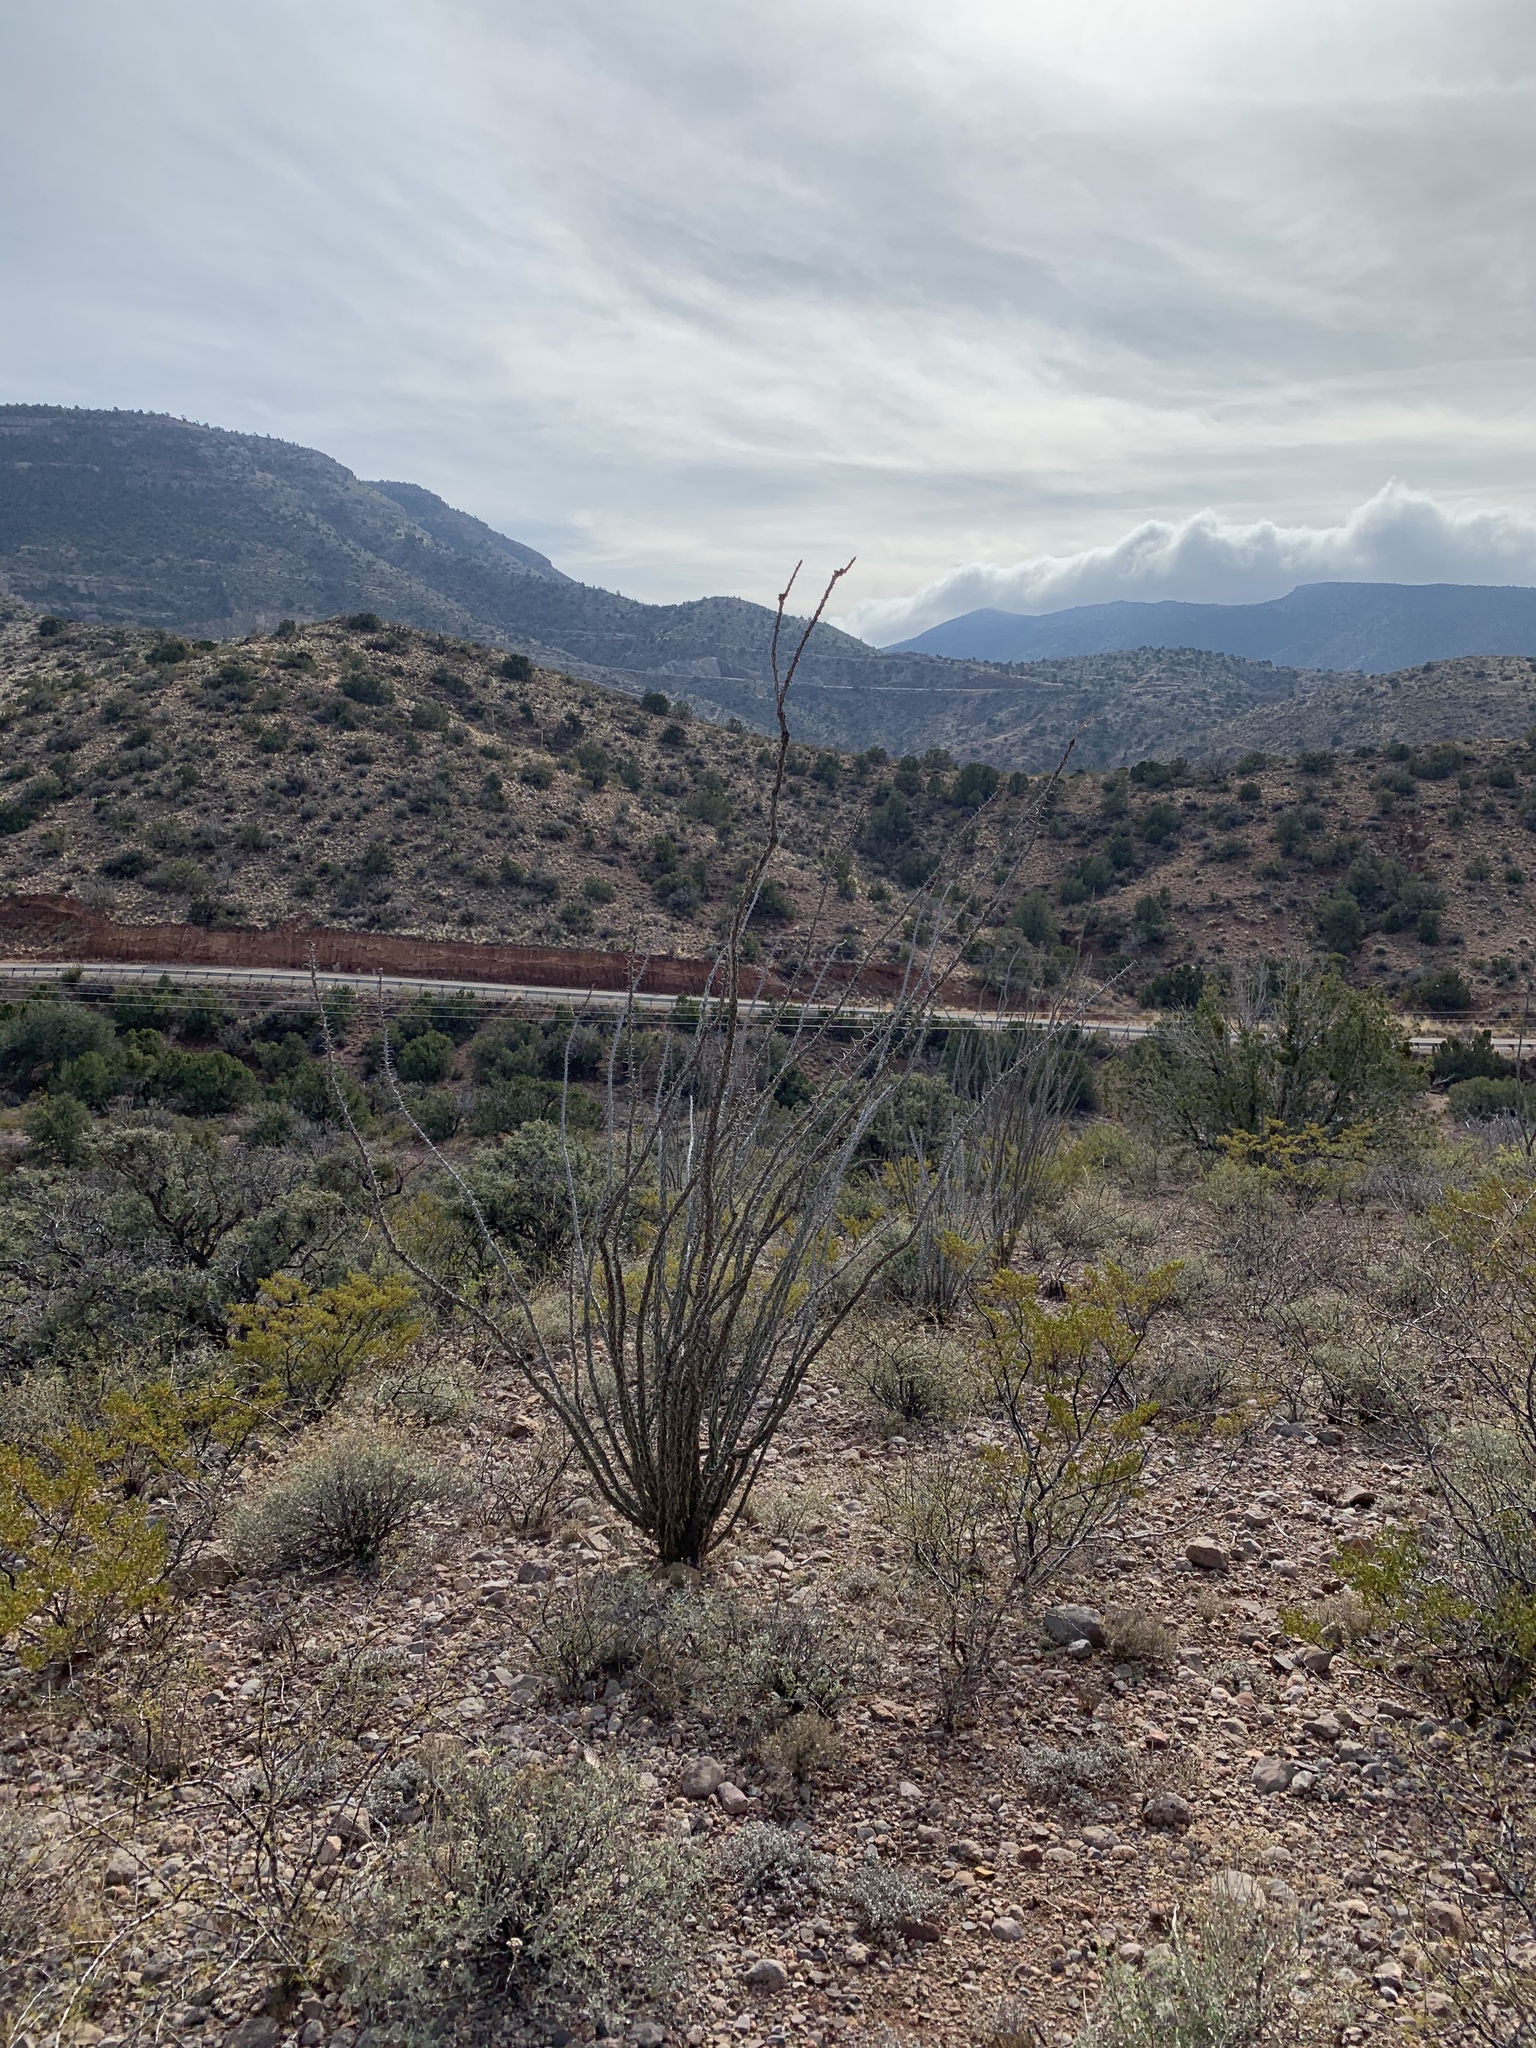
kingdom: Plantae
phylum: Tracheophyta
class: Magnoliopsida
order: Ericales
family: Fouquieriaceae
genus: Fouquieria
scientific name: Fouquieria splendens
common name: Vine-cactus
